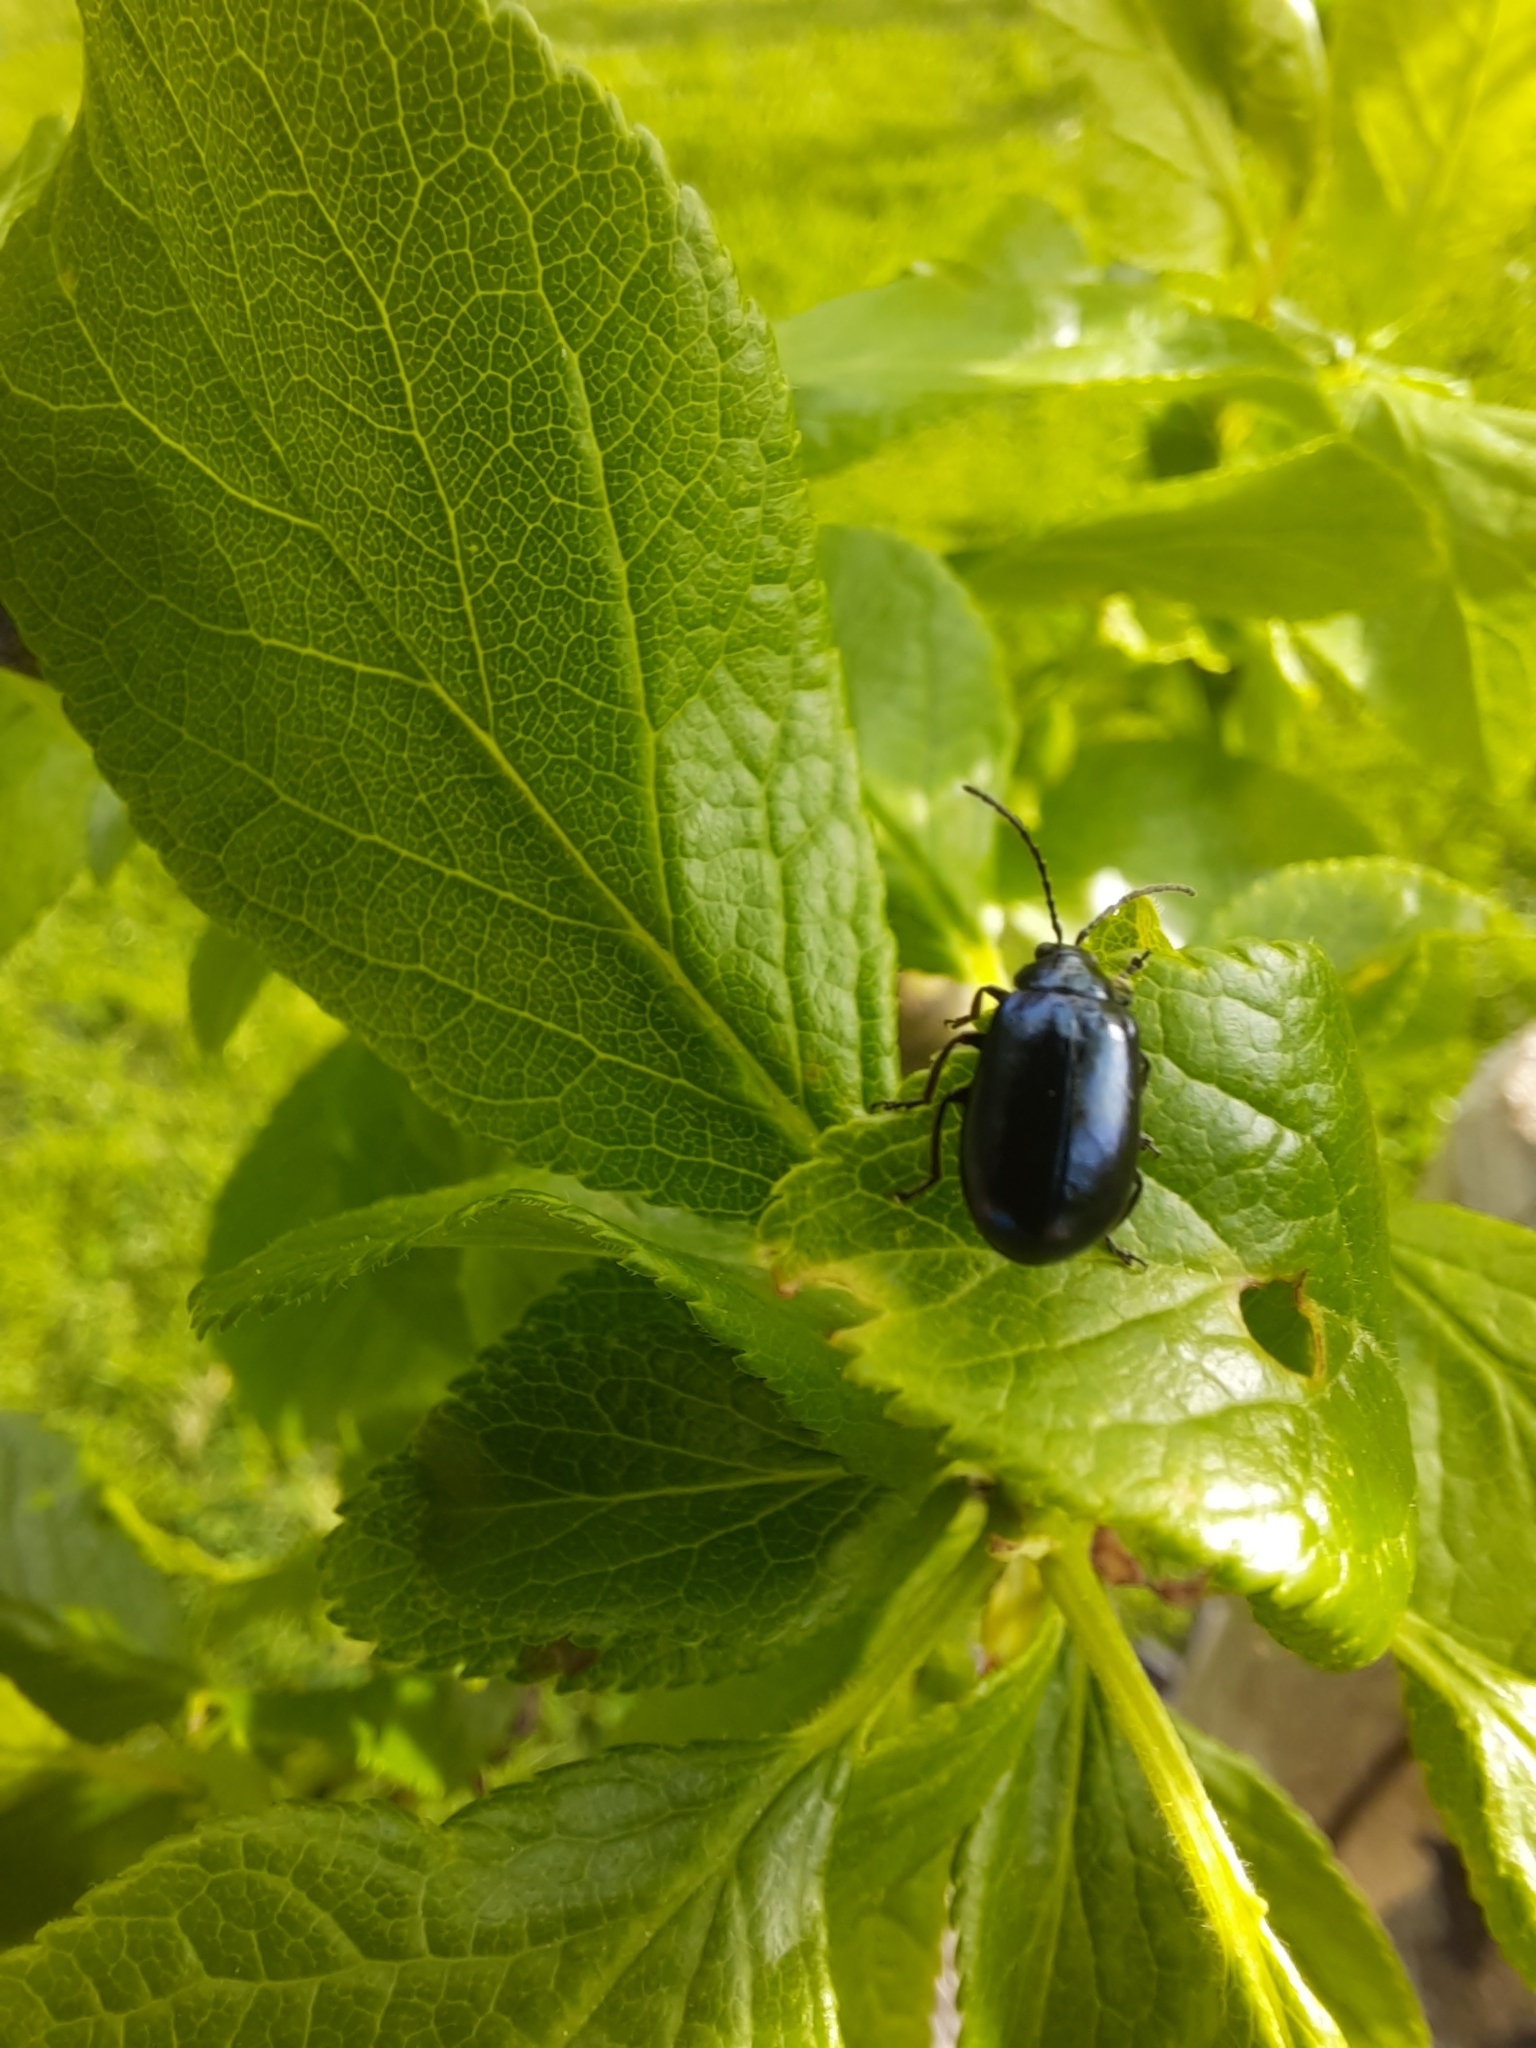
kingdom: Animalia
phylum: Arthropoda
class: Insecta
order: Coleoptera
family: Chrysomelidae
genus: Agelastica
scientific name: Agelastica alni
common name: Alder leaf beetle
